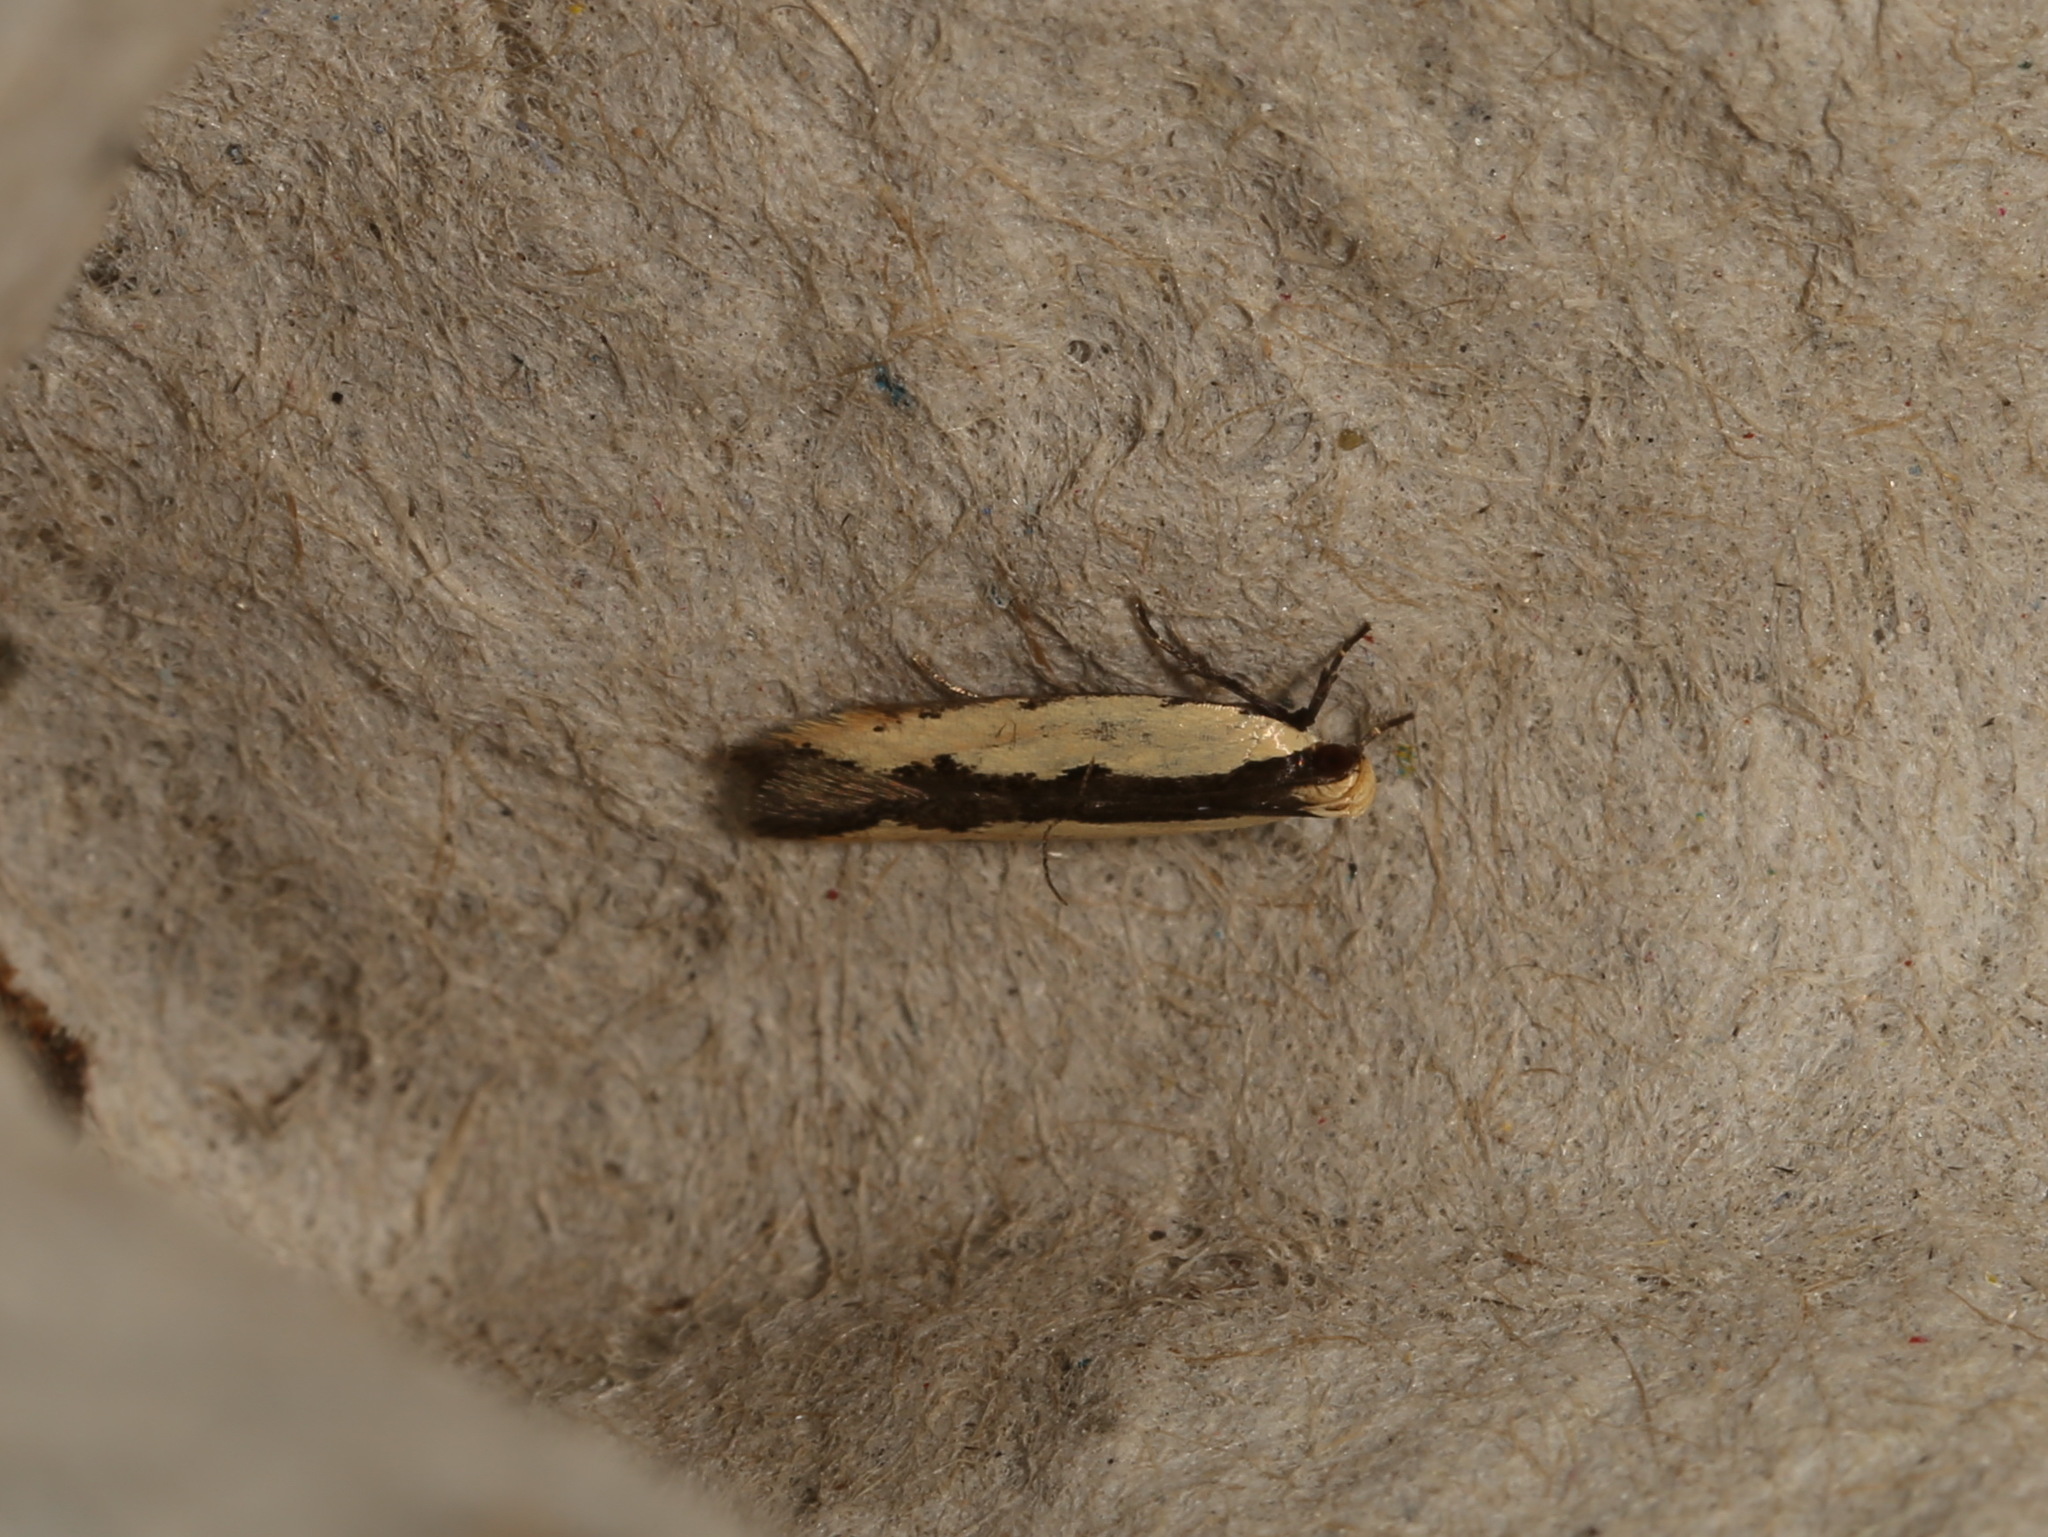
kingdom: Animalia
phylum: Arthropoda
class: Insecta
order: Lepidoptera
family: Gelechiidae
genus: Ardozyga
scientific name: Ardozyga catarrhacta
